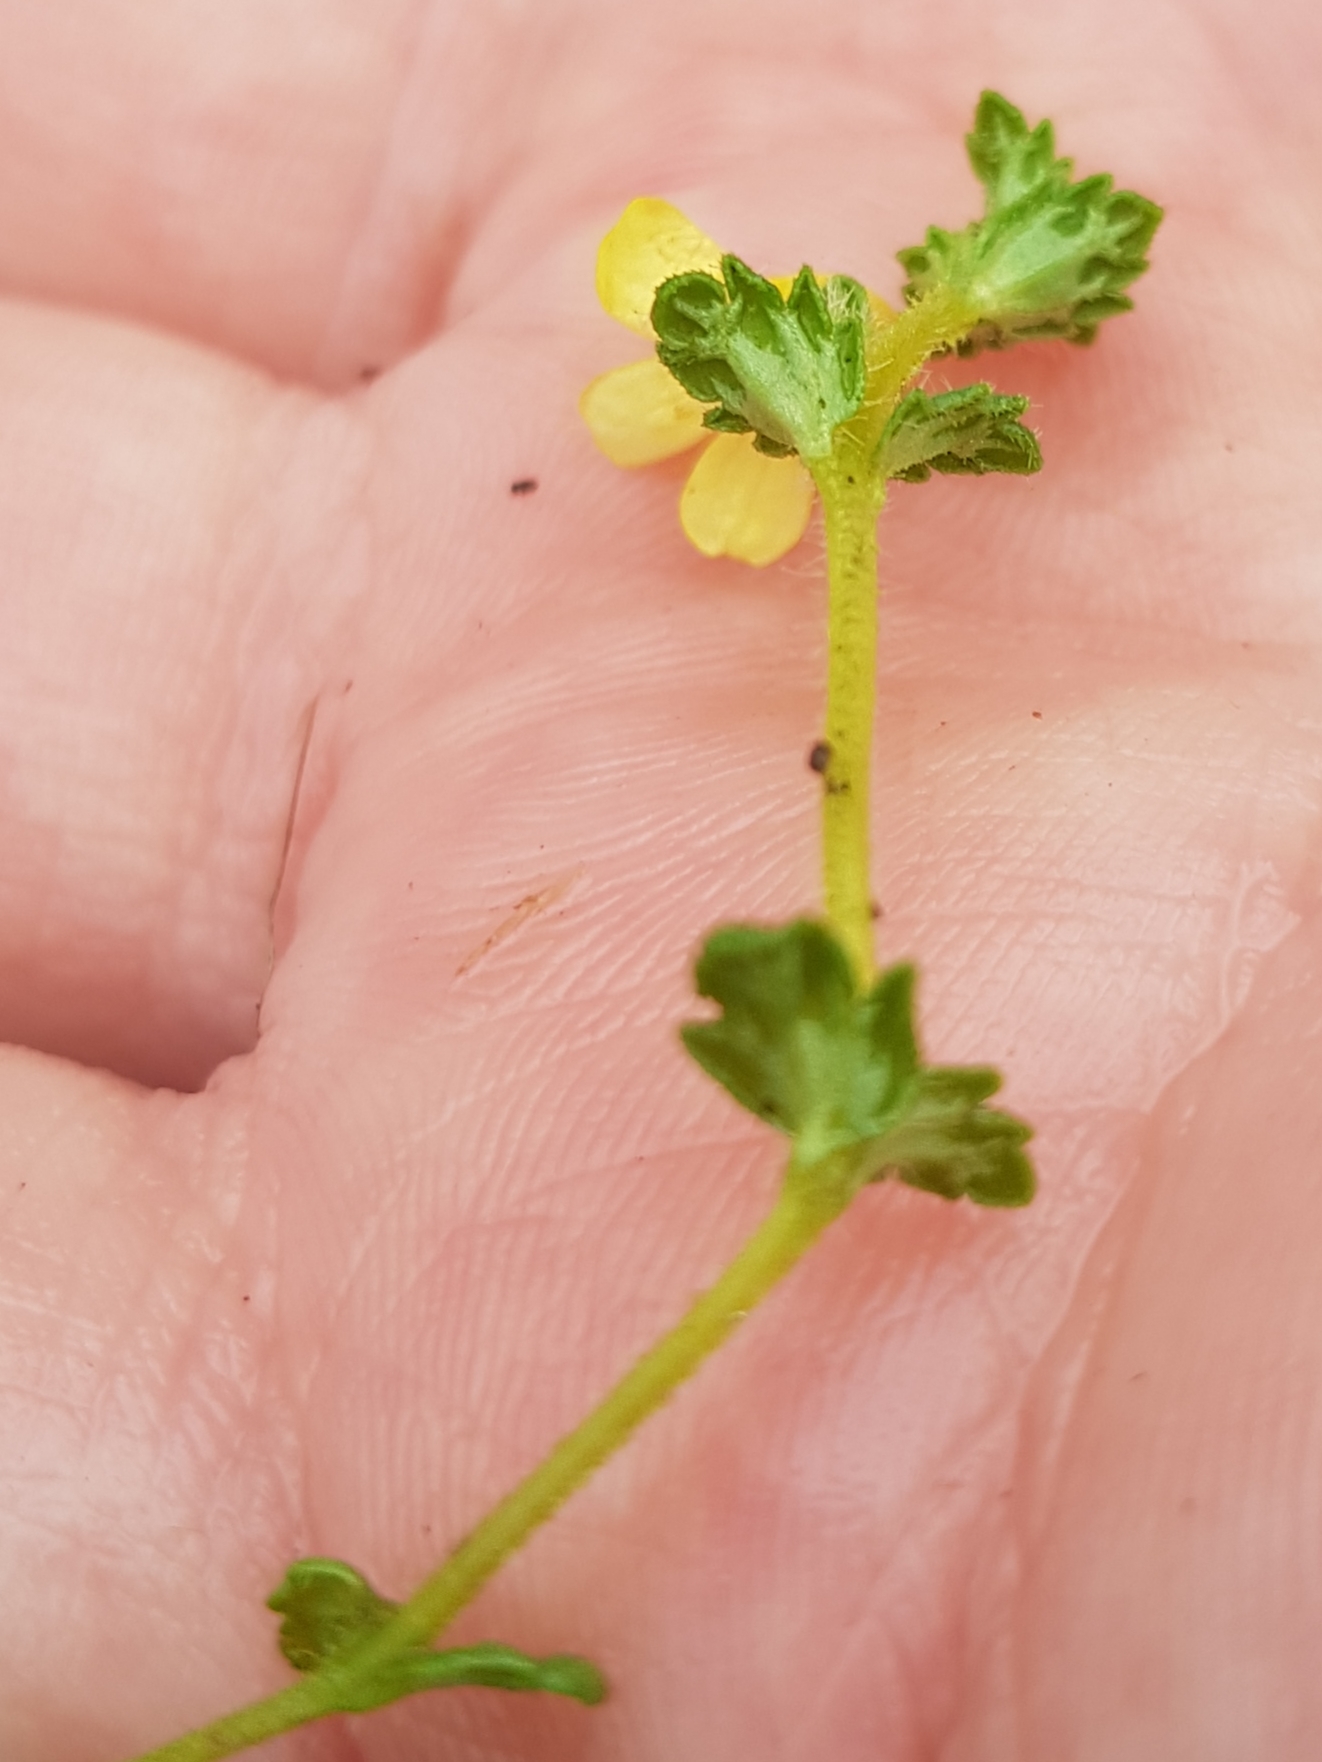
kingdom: Plantae
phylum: Tracheophyta
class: Magnoliopsida
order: Lamiales
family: Orobanchaceae
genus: Euphrasia
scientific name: Euphrasia cockayneana
